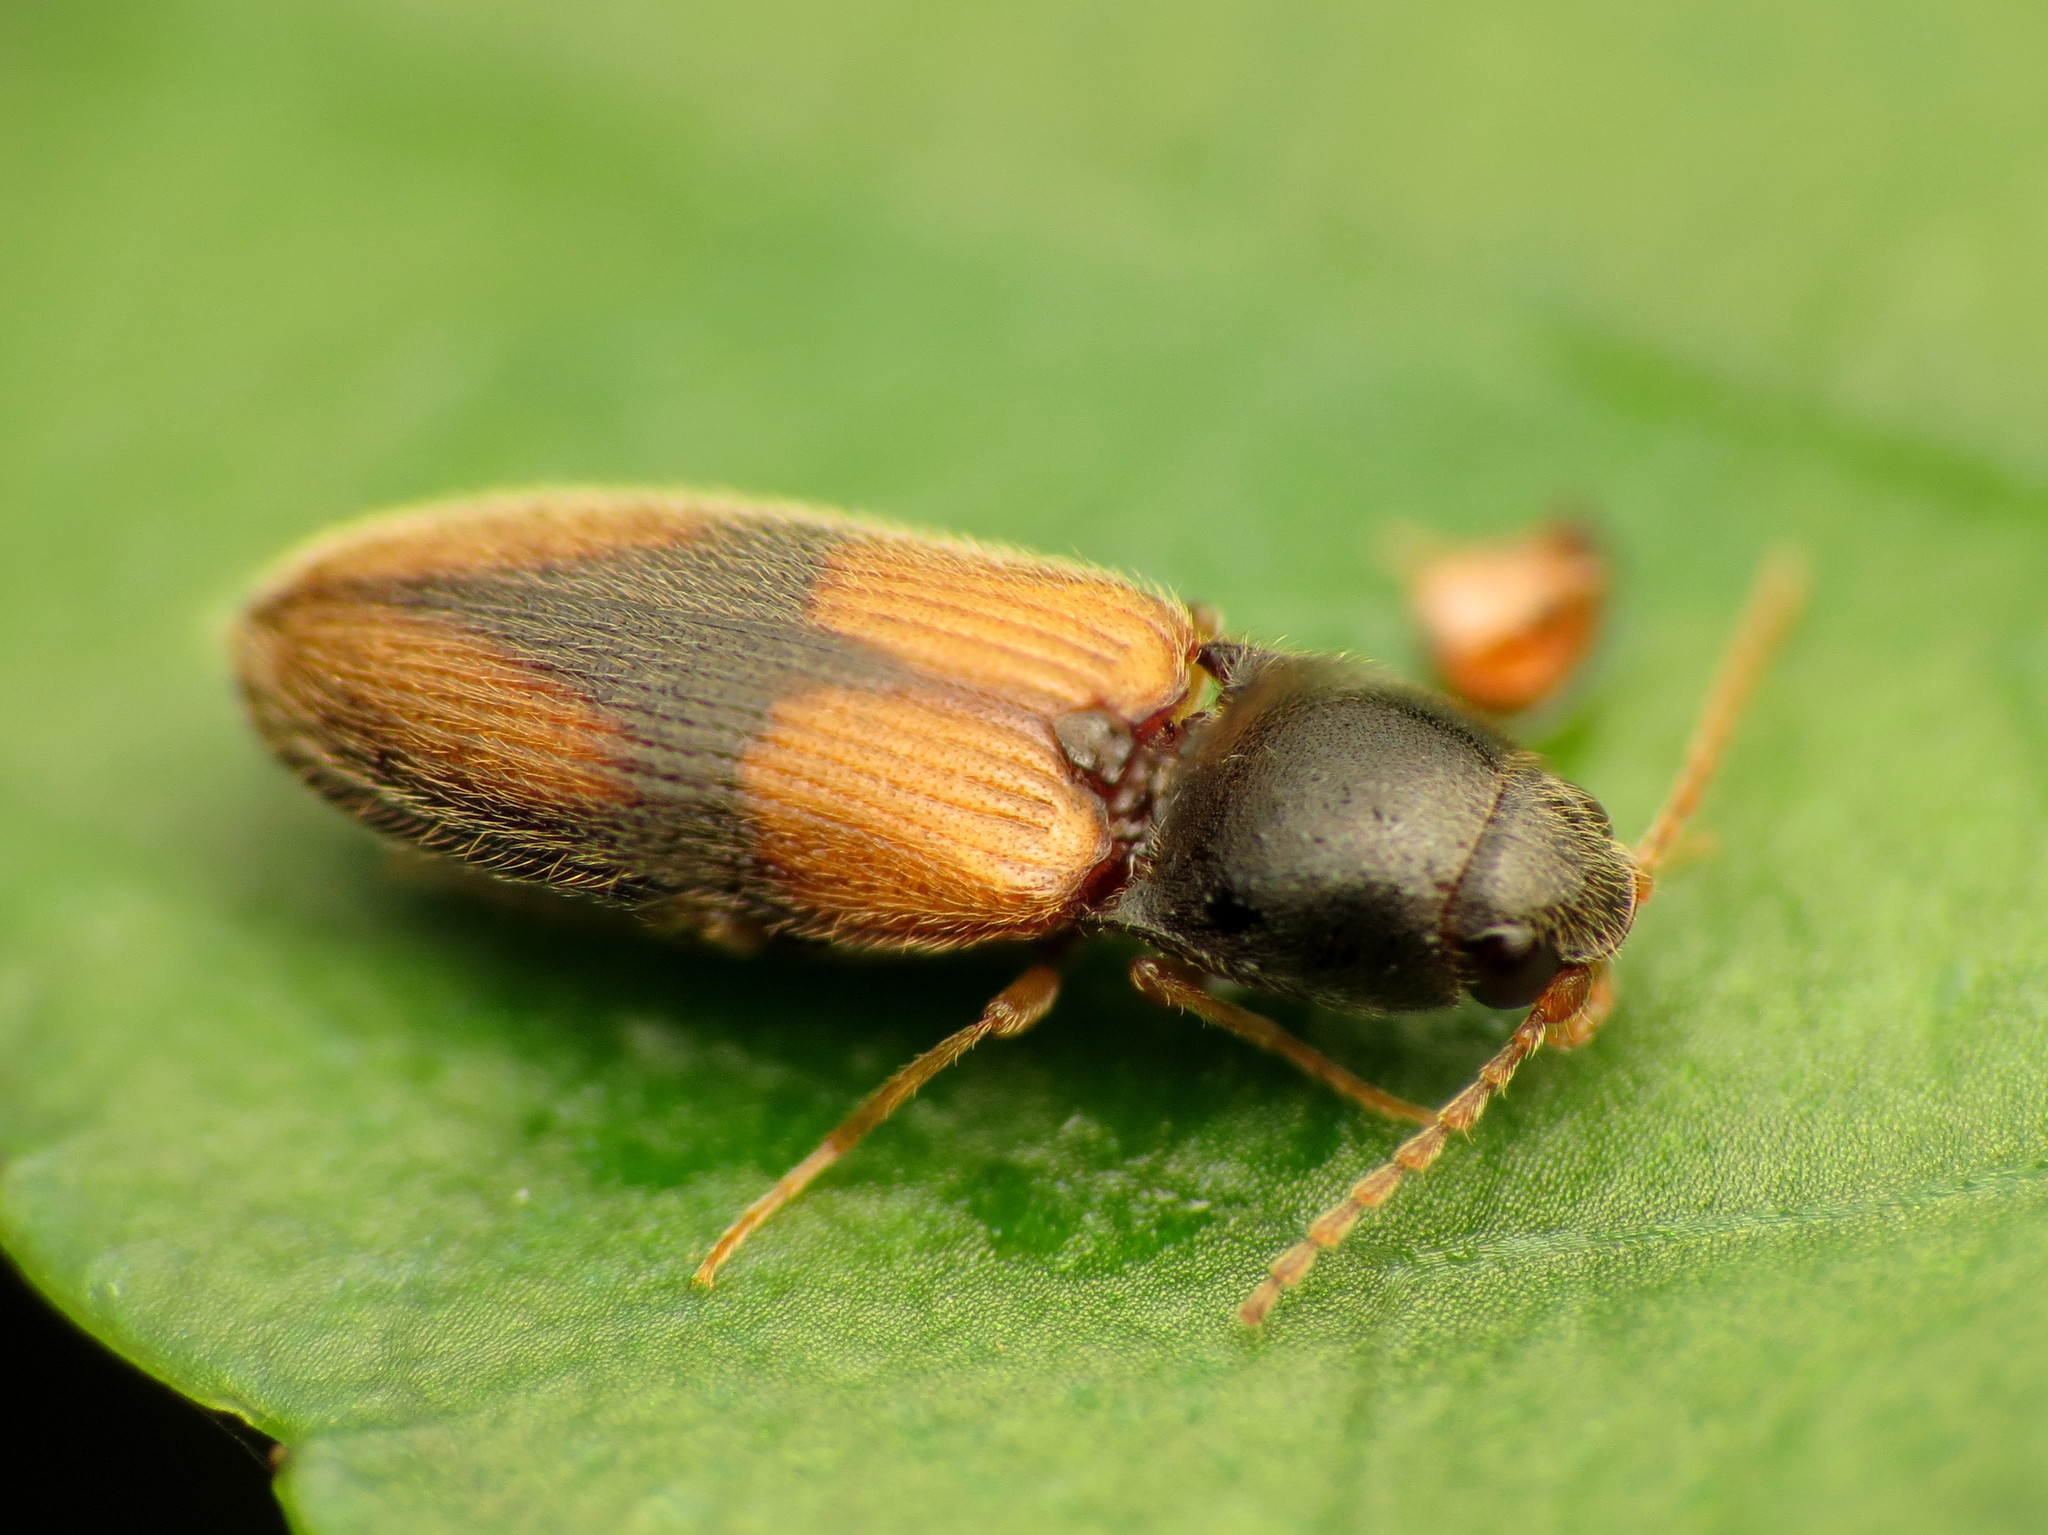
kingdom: Animalia
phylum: Arthropoda
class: Insecta
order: Coleoptera
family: Elateridae
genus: Horistonotus
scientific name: Horistonotus curiatus
